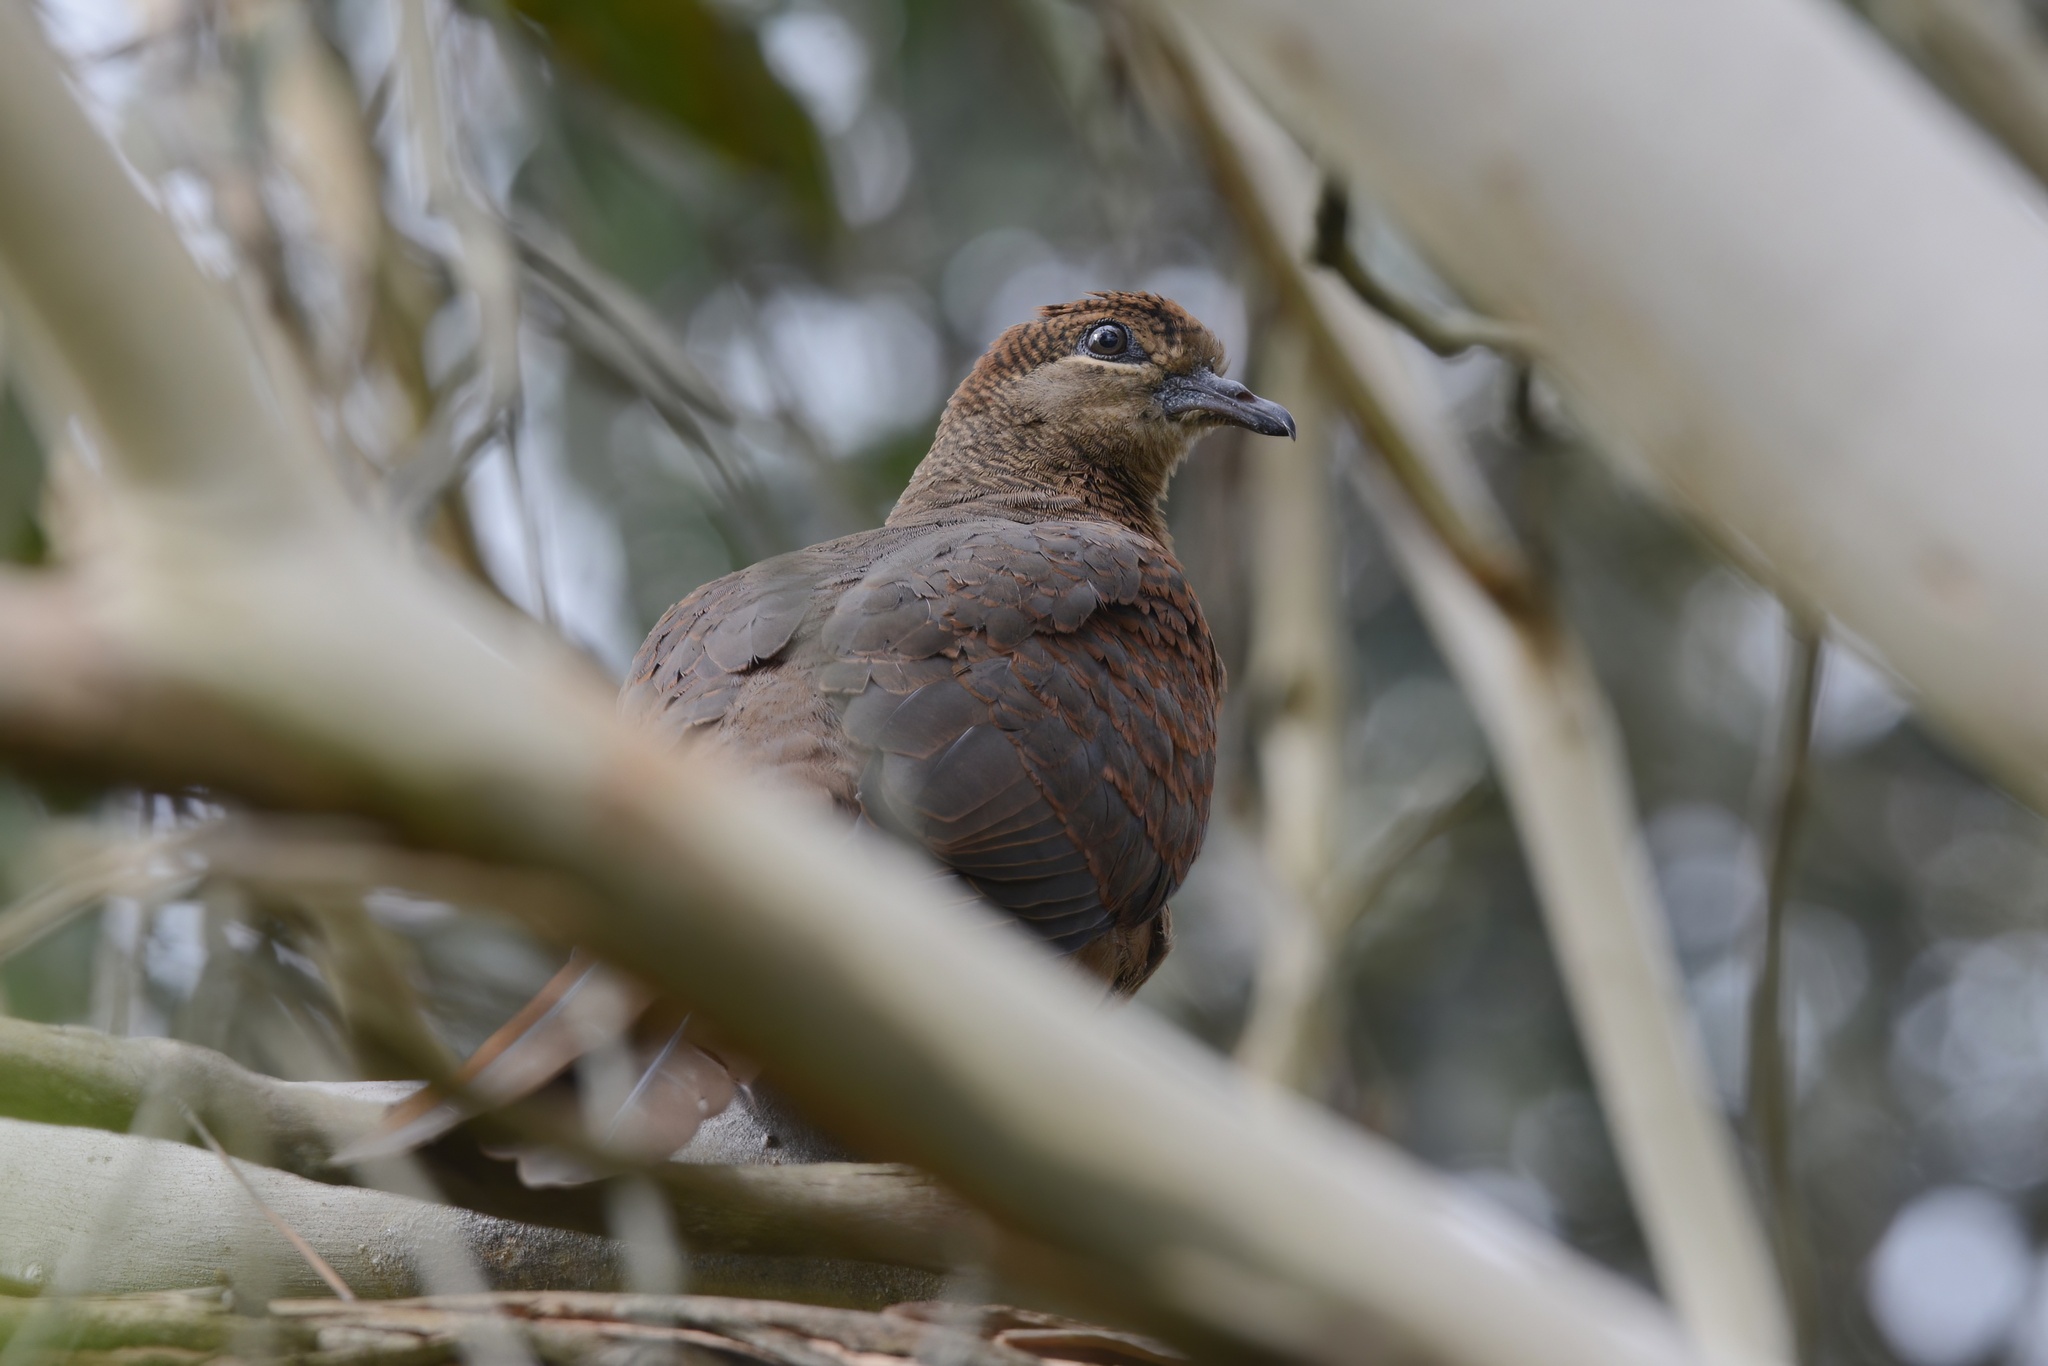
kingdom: Animalia
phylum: Chordata
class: Aves
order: Columbiformes
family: Columbidae
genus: Macropygia
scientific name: Macropygia phasianella
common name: Brown cuckoo-dove
